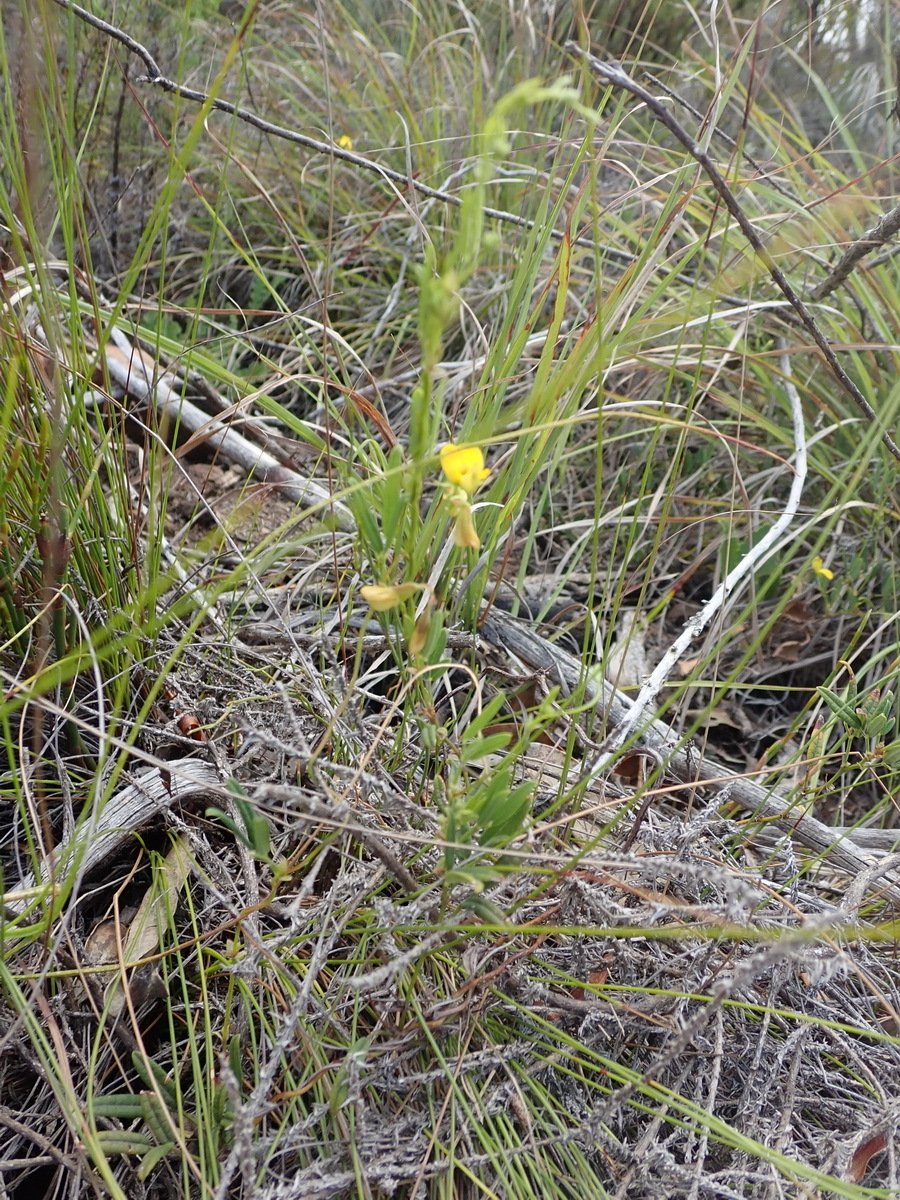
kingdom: Plantae
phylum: Tracheophyta
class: Magnoliopsida
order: Fabales
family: Fabaceae
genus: Rhynchosia
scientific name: Rhynchosia leucoscias
